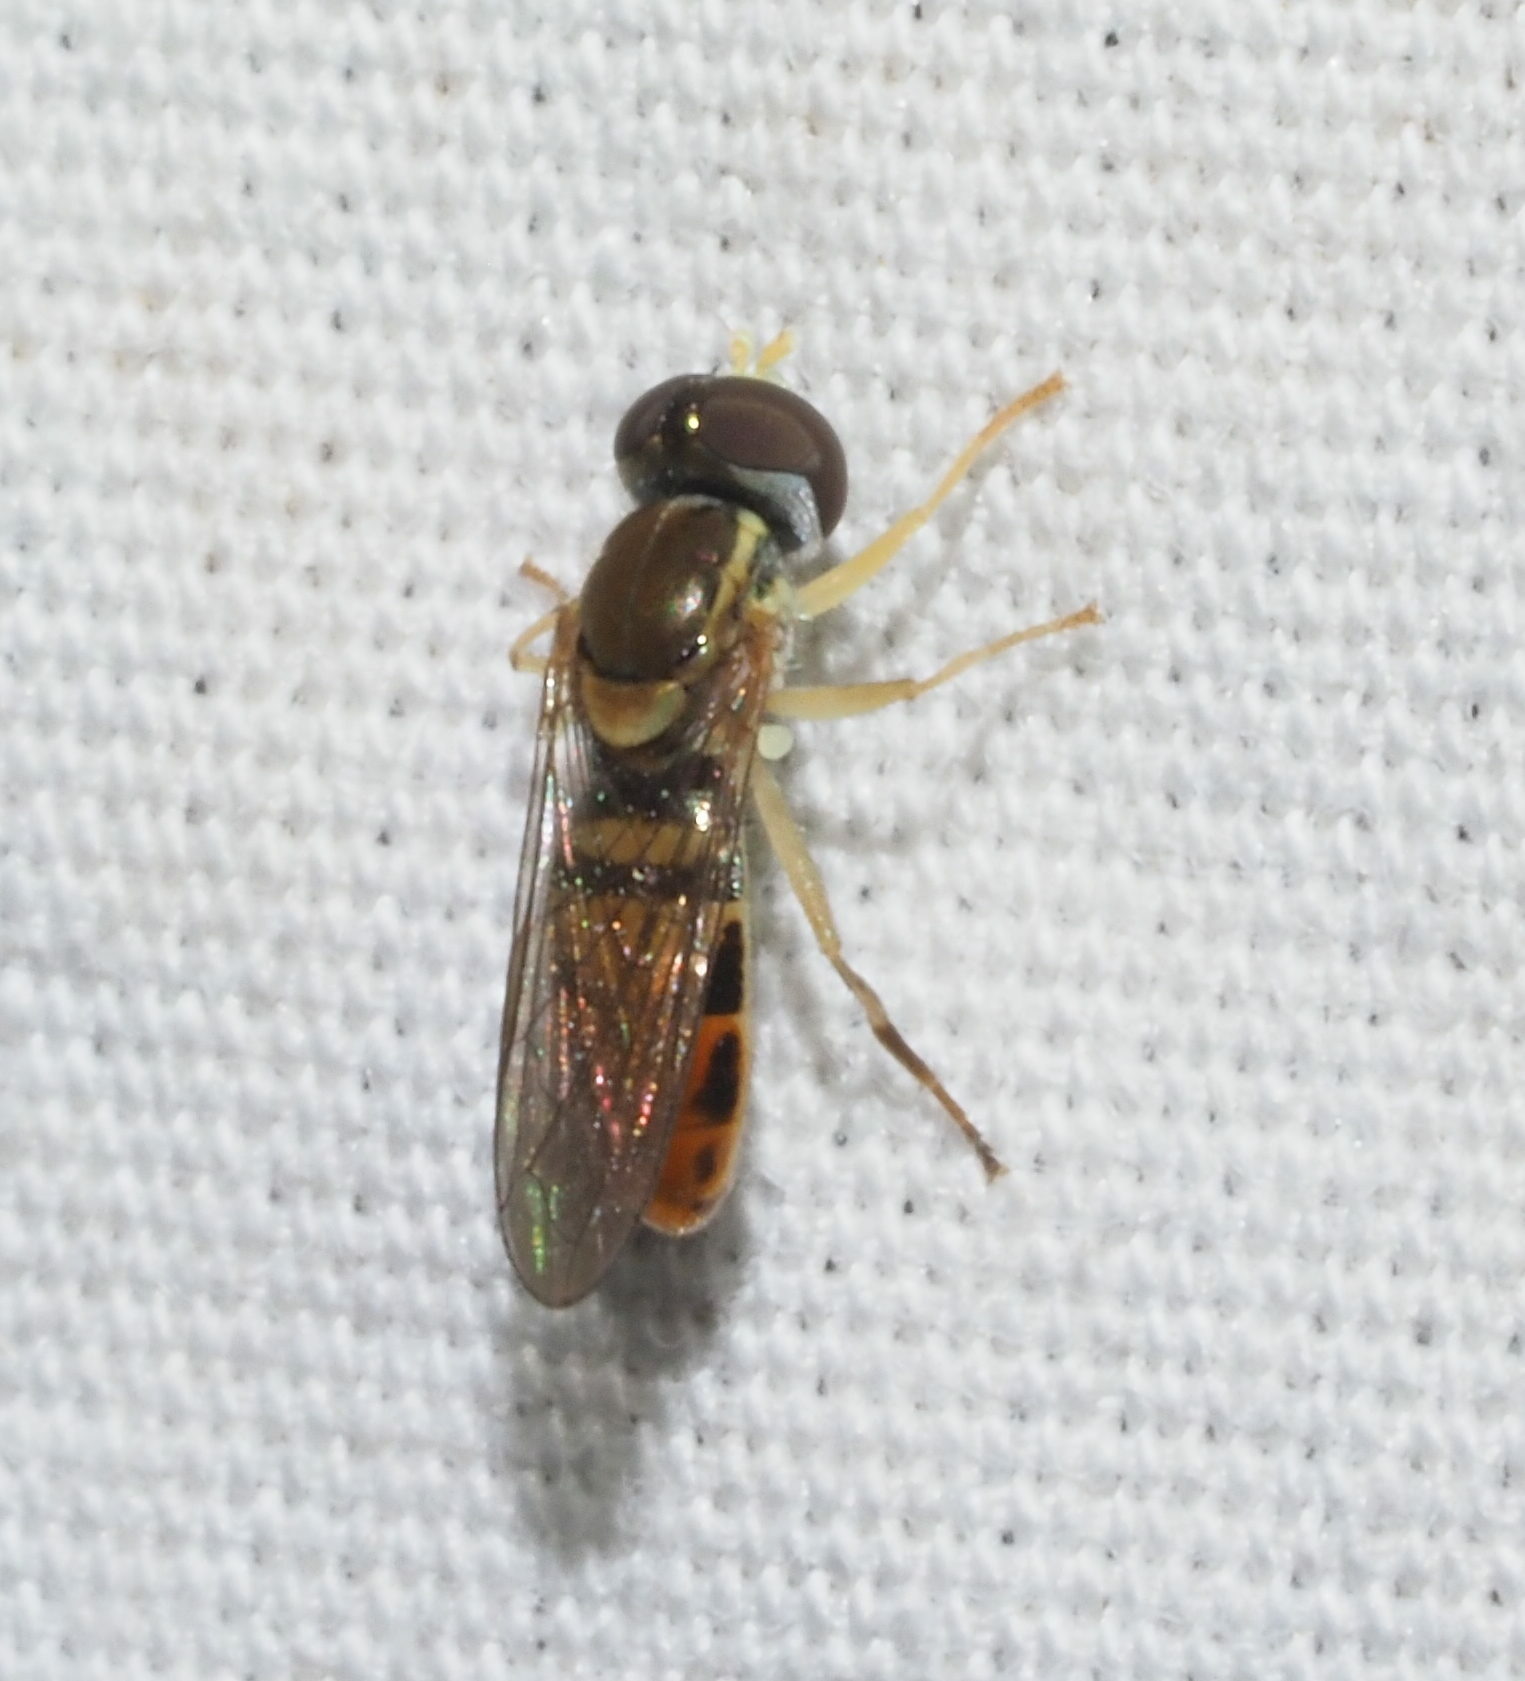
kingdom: Animalia
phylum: Arthropoda
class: Insecta
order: Diptera
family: Syrphidae
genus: Toxomerus
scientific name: Toxomerus marginatus
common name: Syrphid fly
